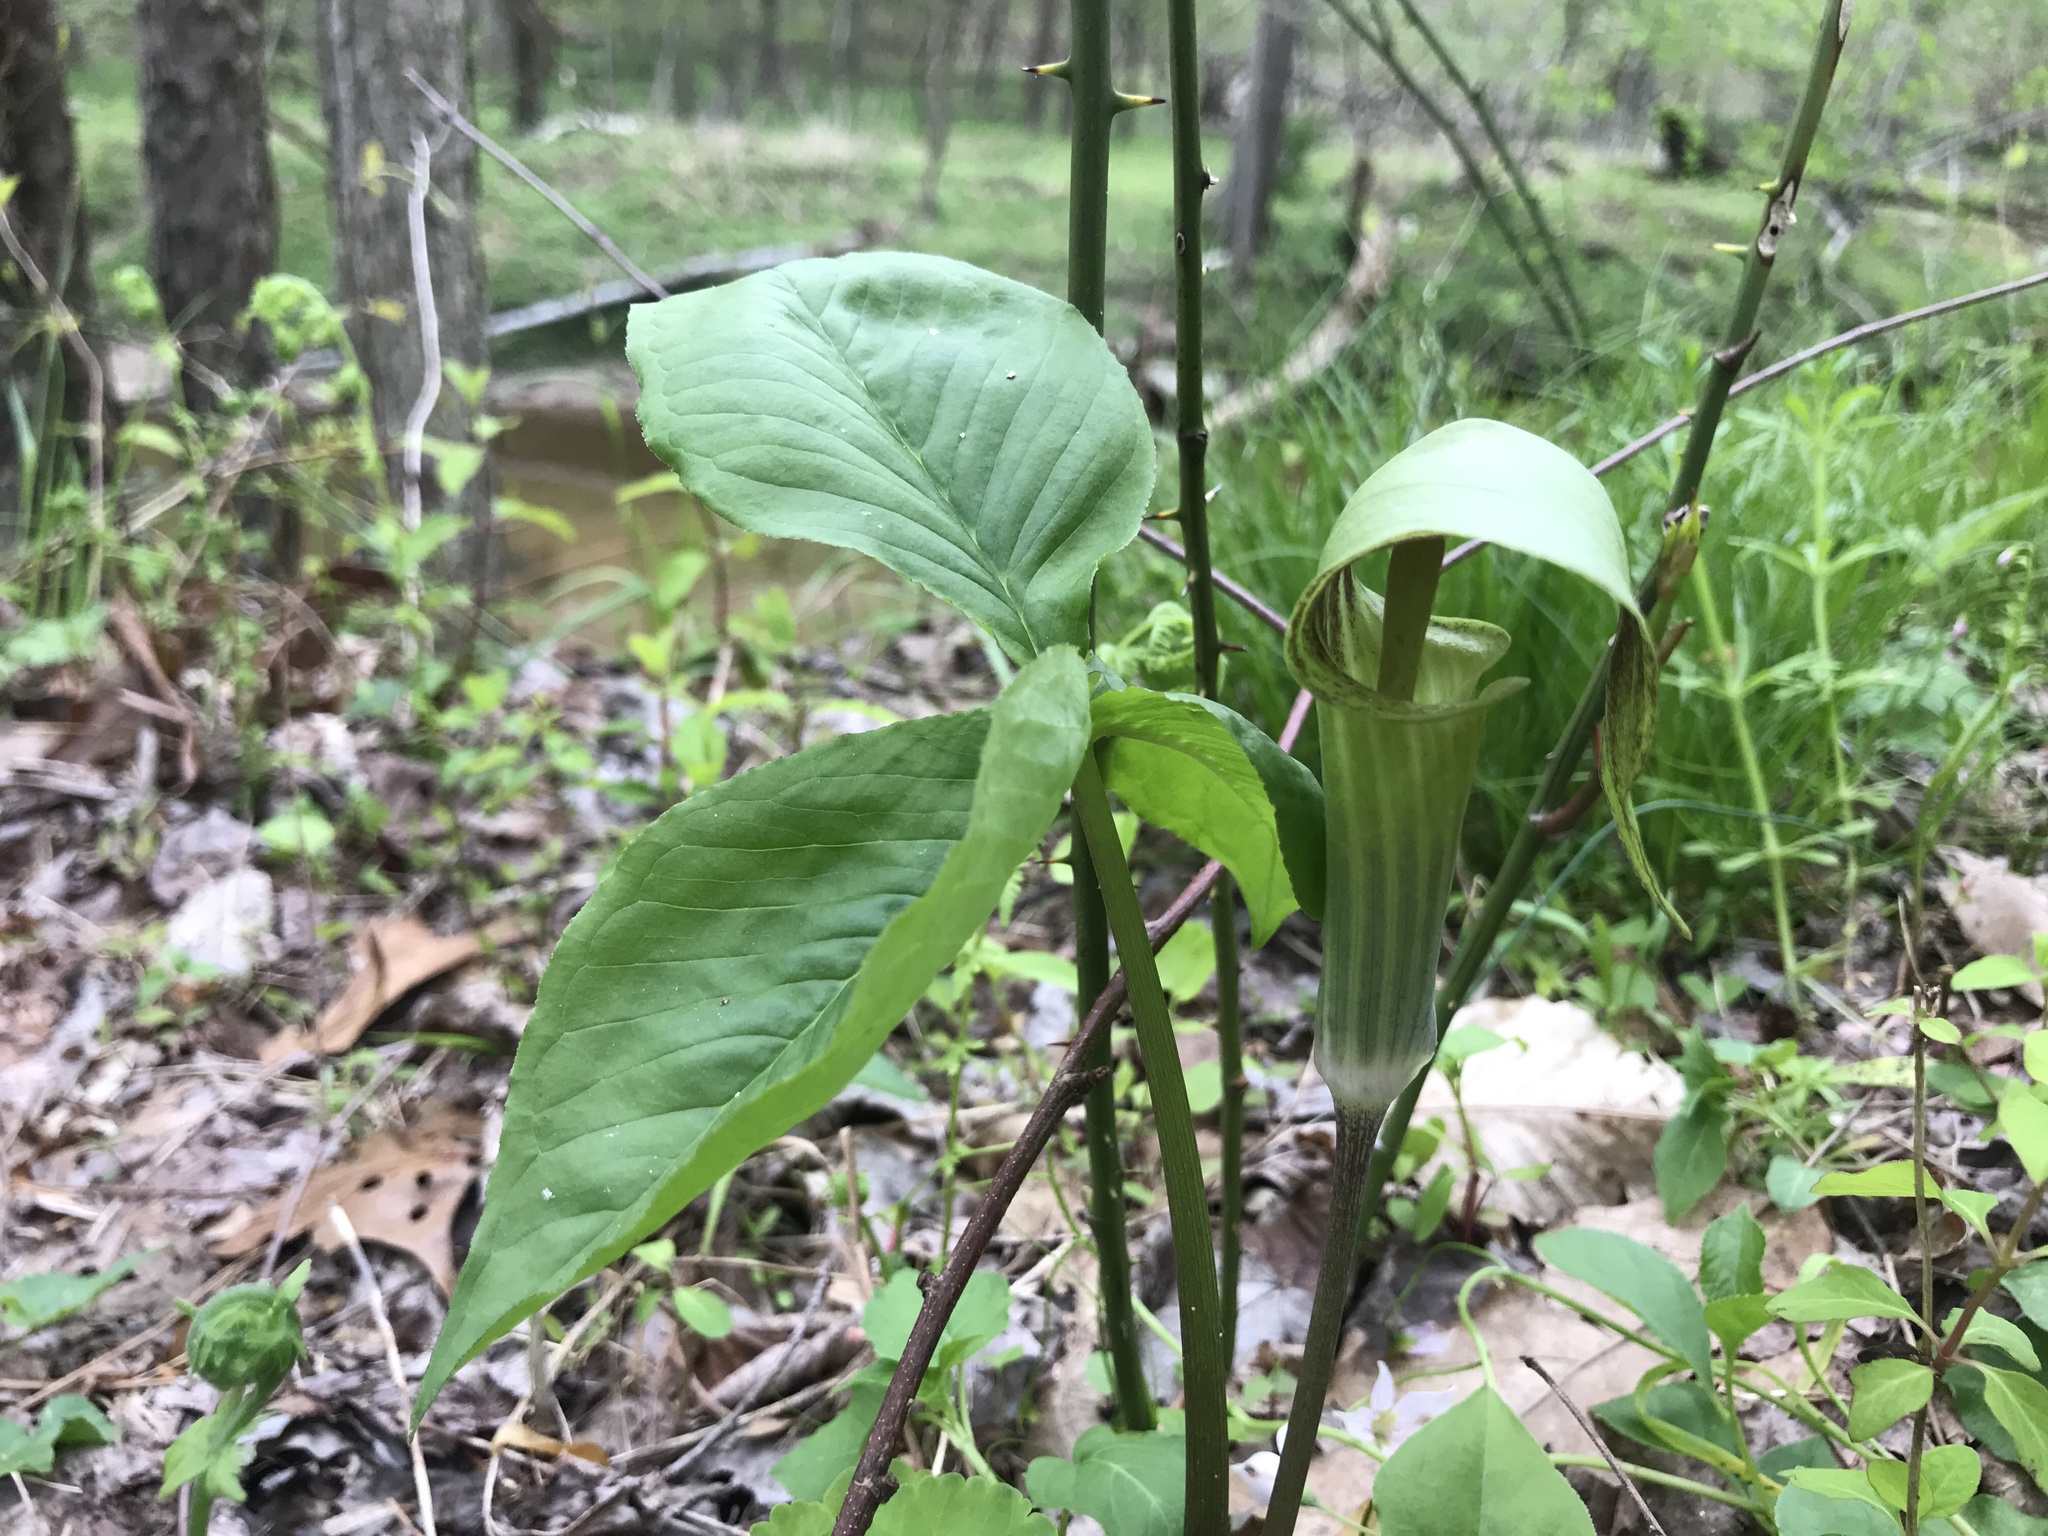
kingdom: Plantae
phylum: Tracheophyta
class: Liliopsida
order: Alismatales
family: Araceae
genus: Arisaema
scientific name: Arisaema triphyllum
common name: Jack-in-the-pulpit
